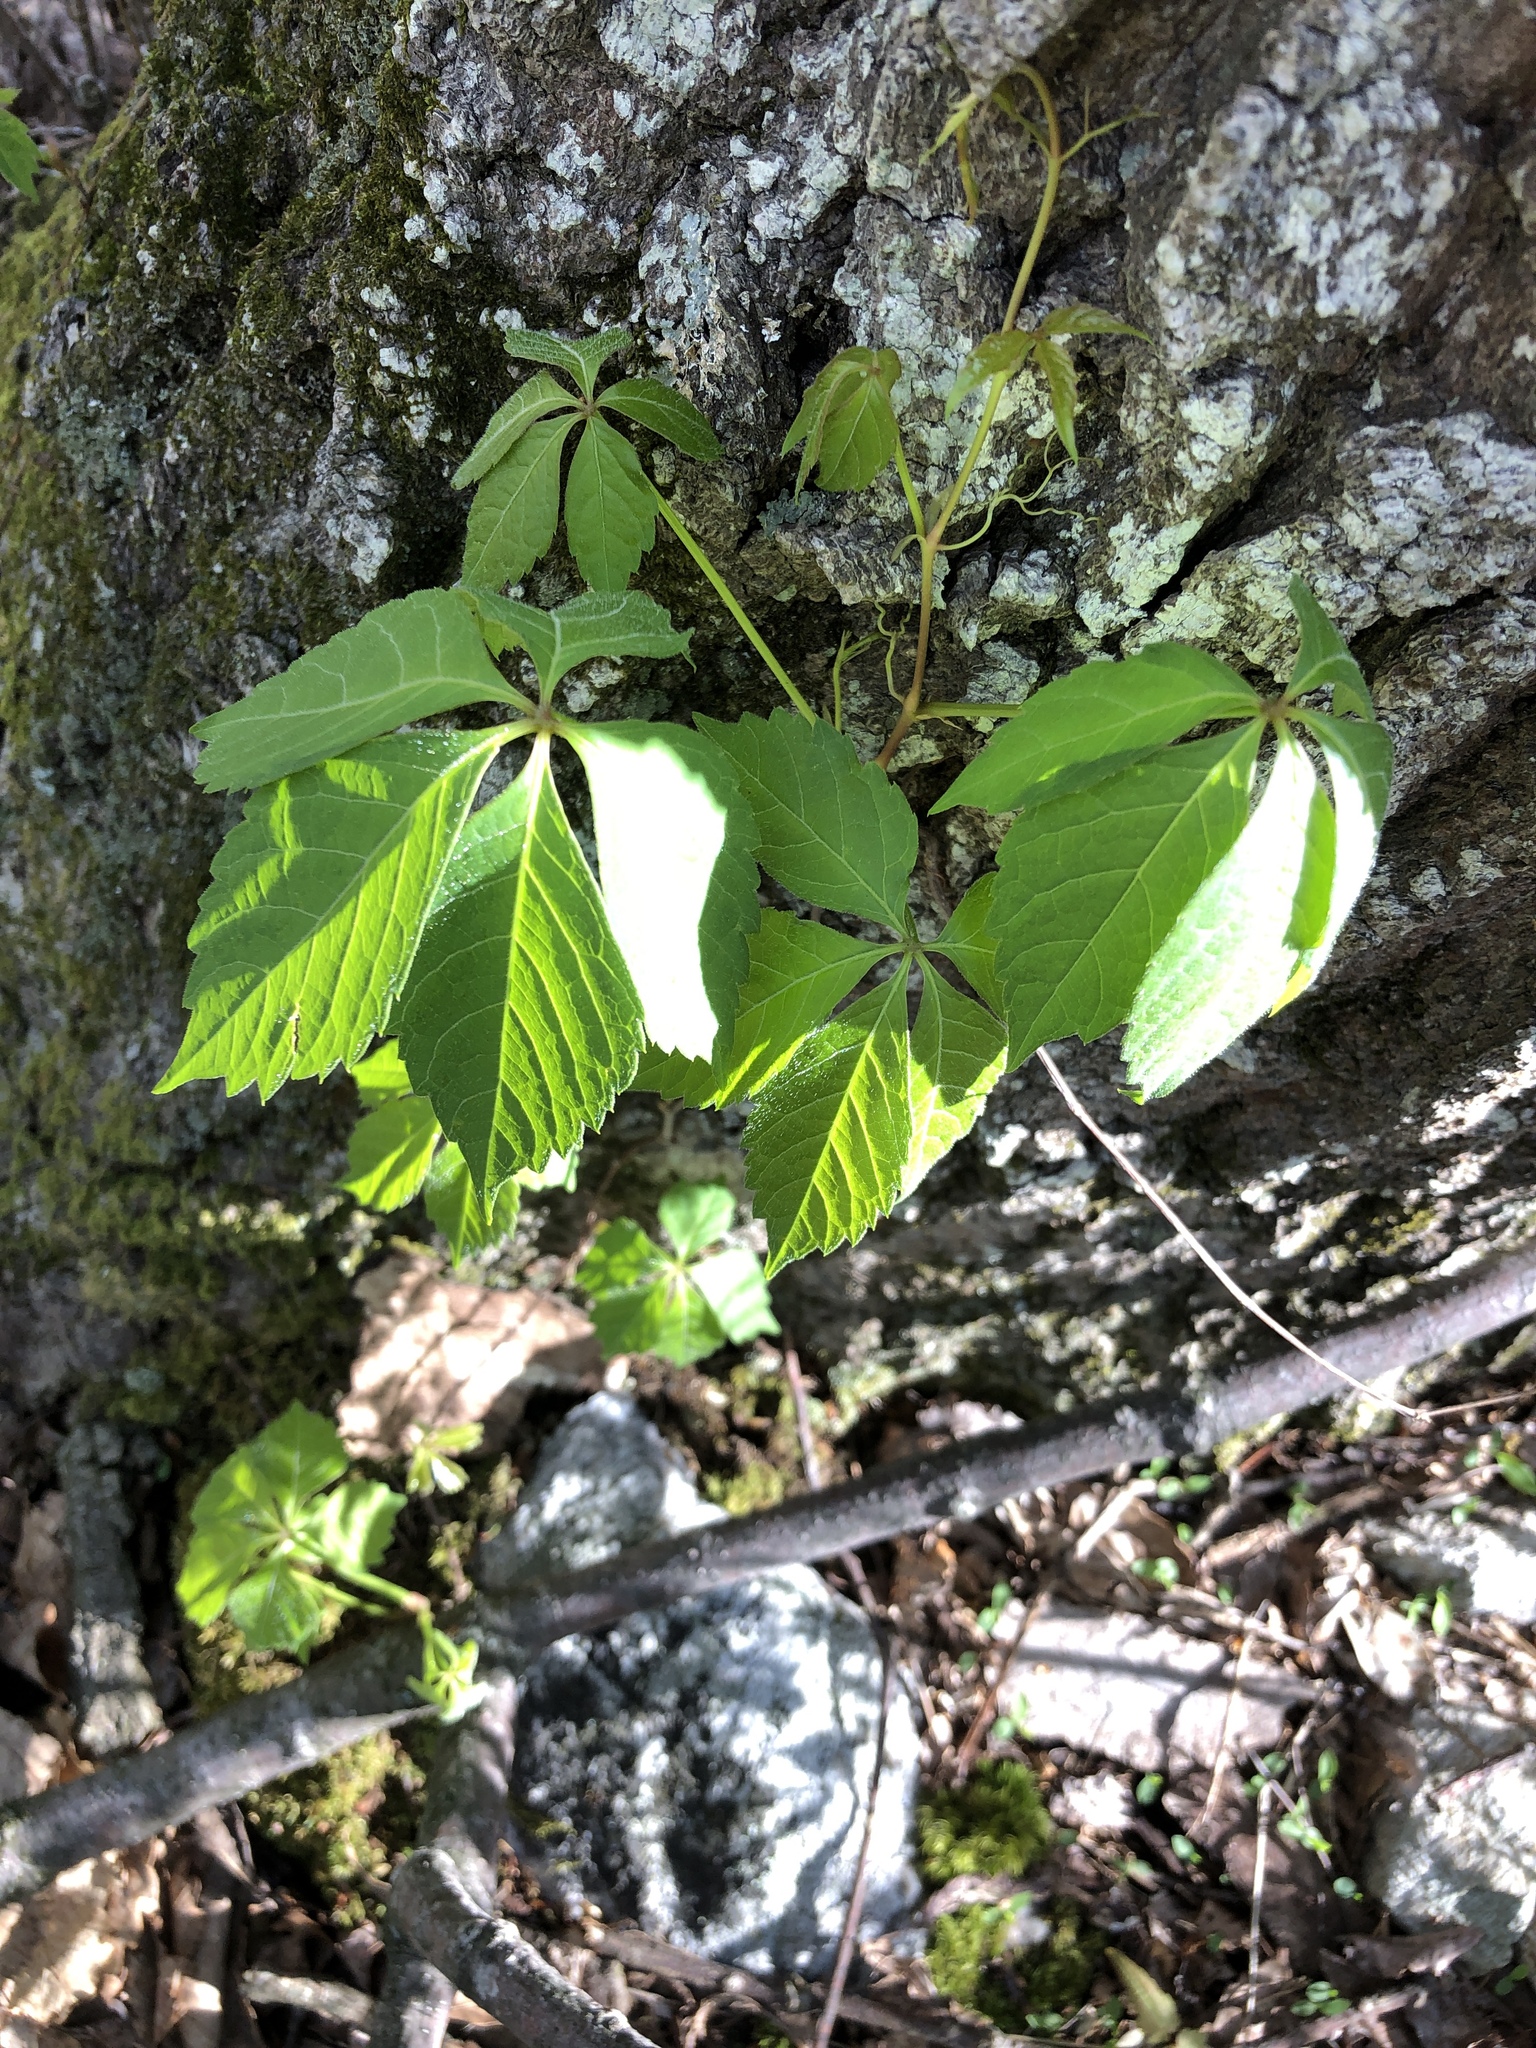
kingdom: Plantae
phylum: Tracheophyta
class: Magnoliopsida
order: Vitales
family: Vitaceae
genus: Parthenocissus
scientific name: Parthenocissus quinquefolia
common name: Virginia-creeper
